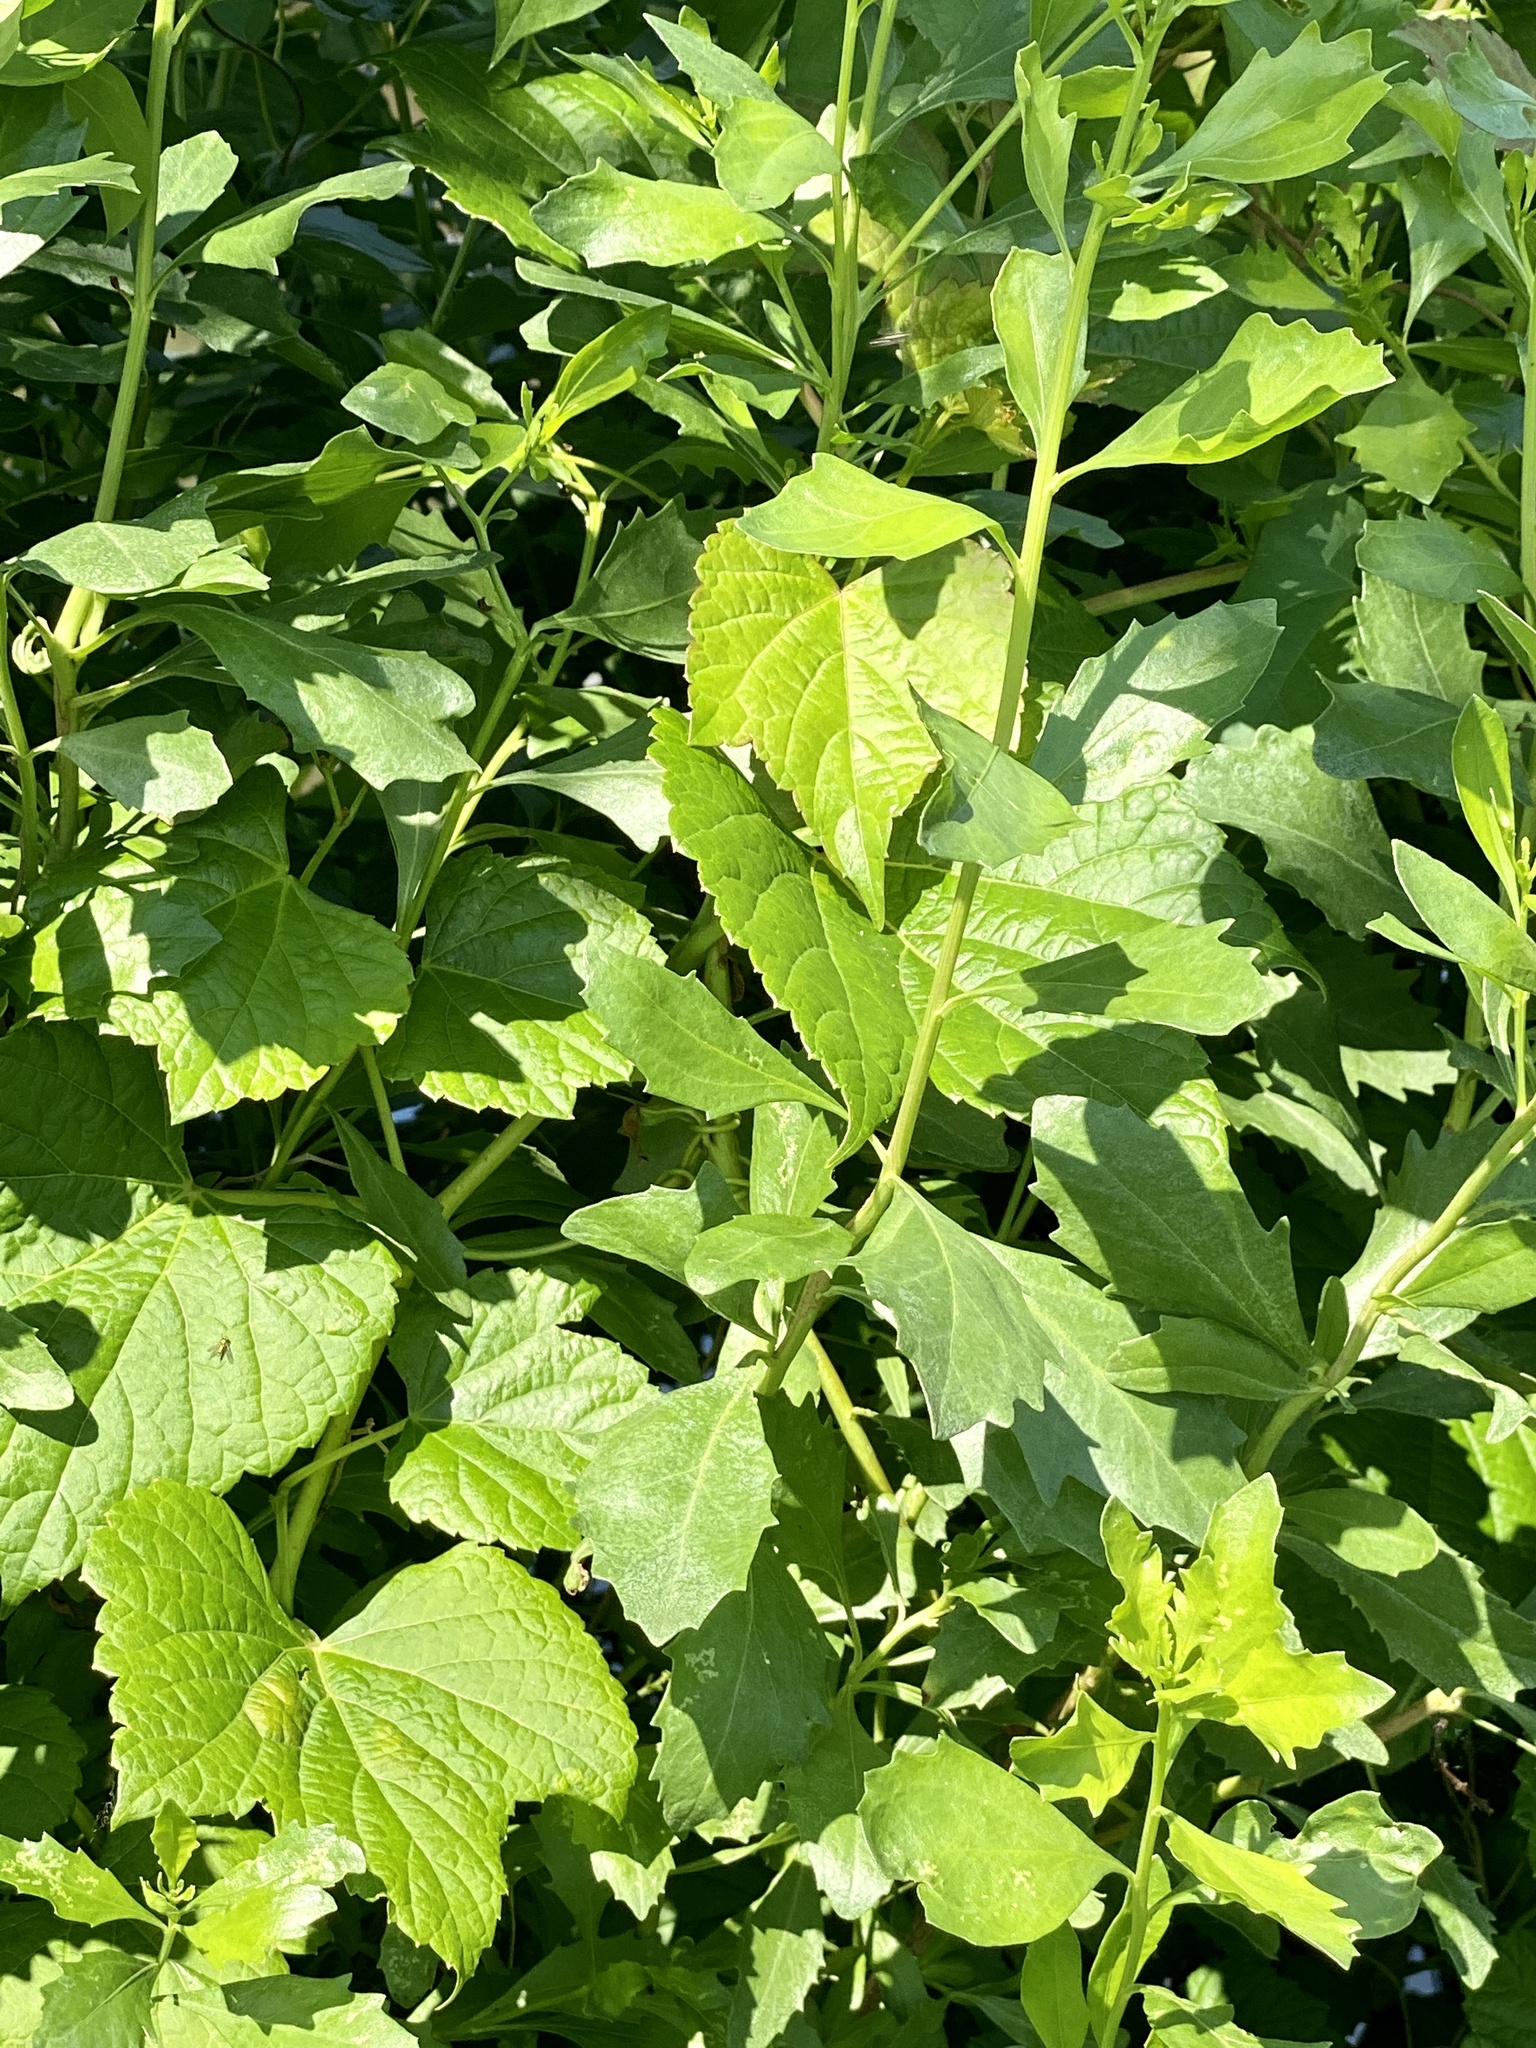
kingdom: Plantae
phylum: Tracheophyta
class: Magnoliopsida
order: Asterales
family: Asteraceae
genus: Baccharis
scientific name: Baccharis halimifolia
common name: Eastern baccharis
